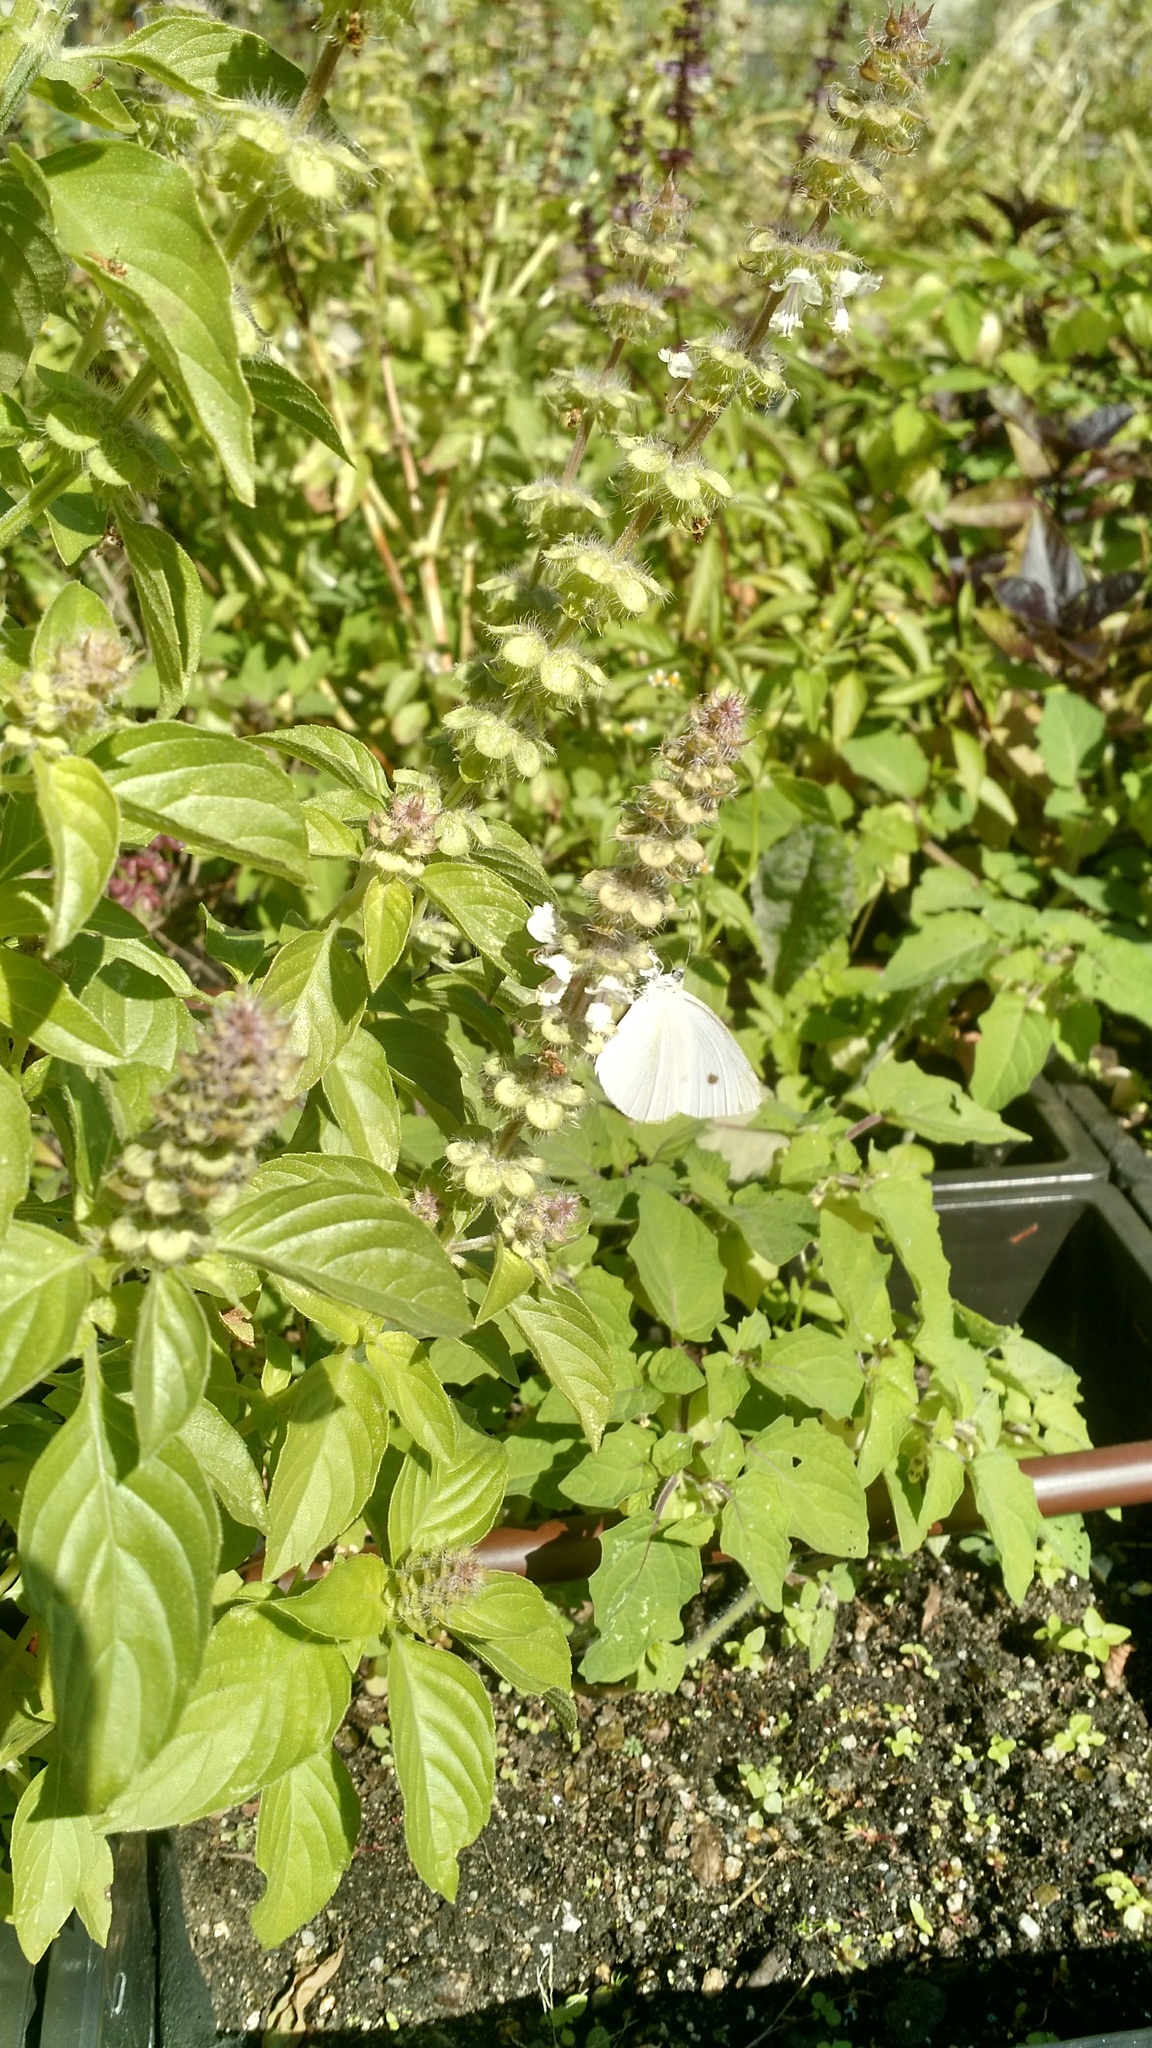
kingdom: Animalia
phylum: Arthropoda
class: Insecta
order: Lepidoptera
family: Pieridae
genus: Pieris
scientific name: Pieris rapae
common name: Small white
